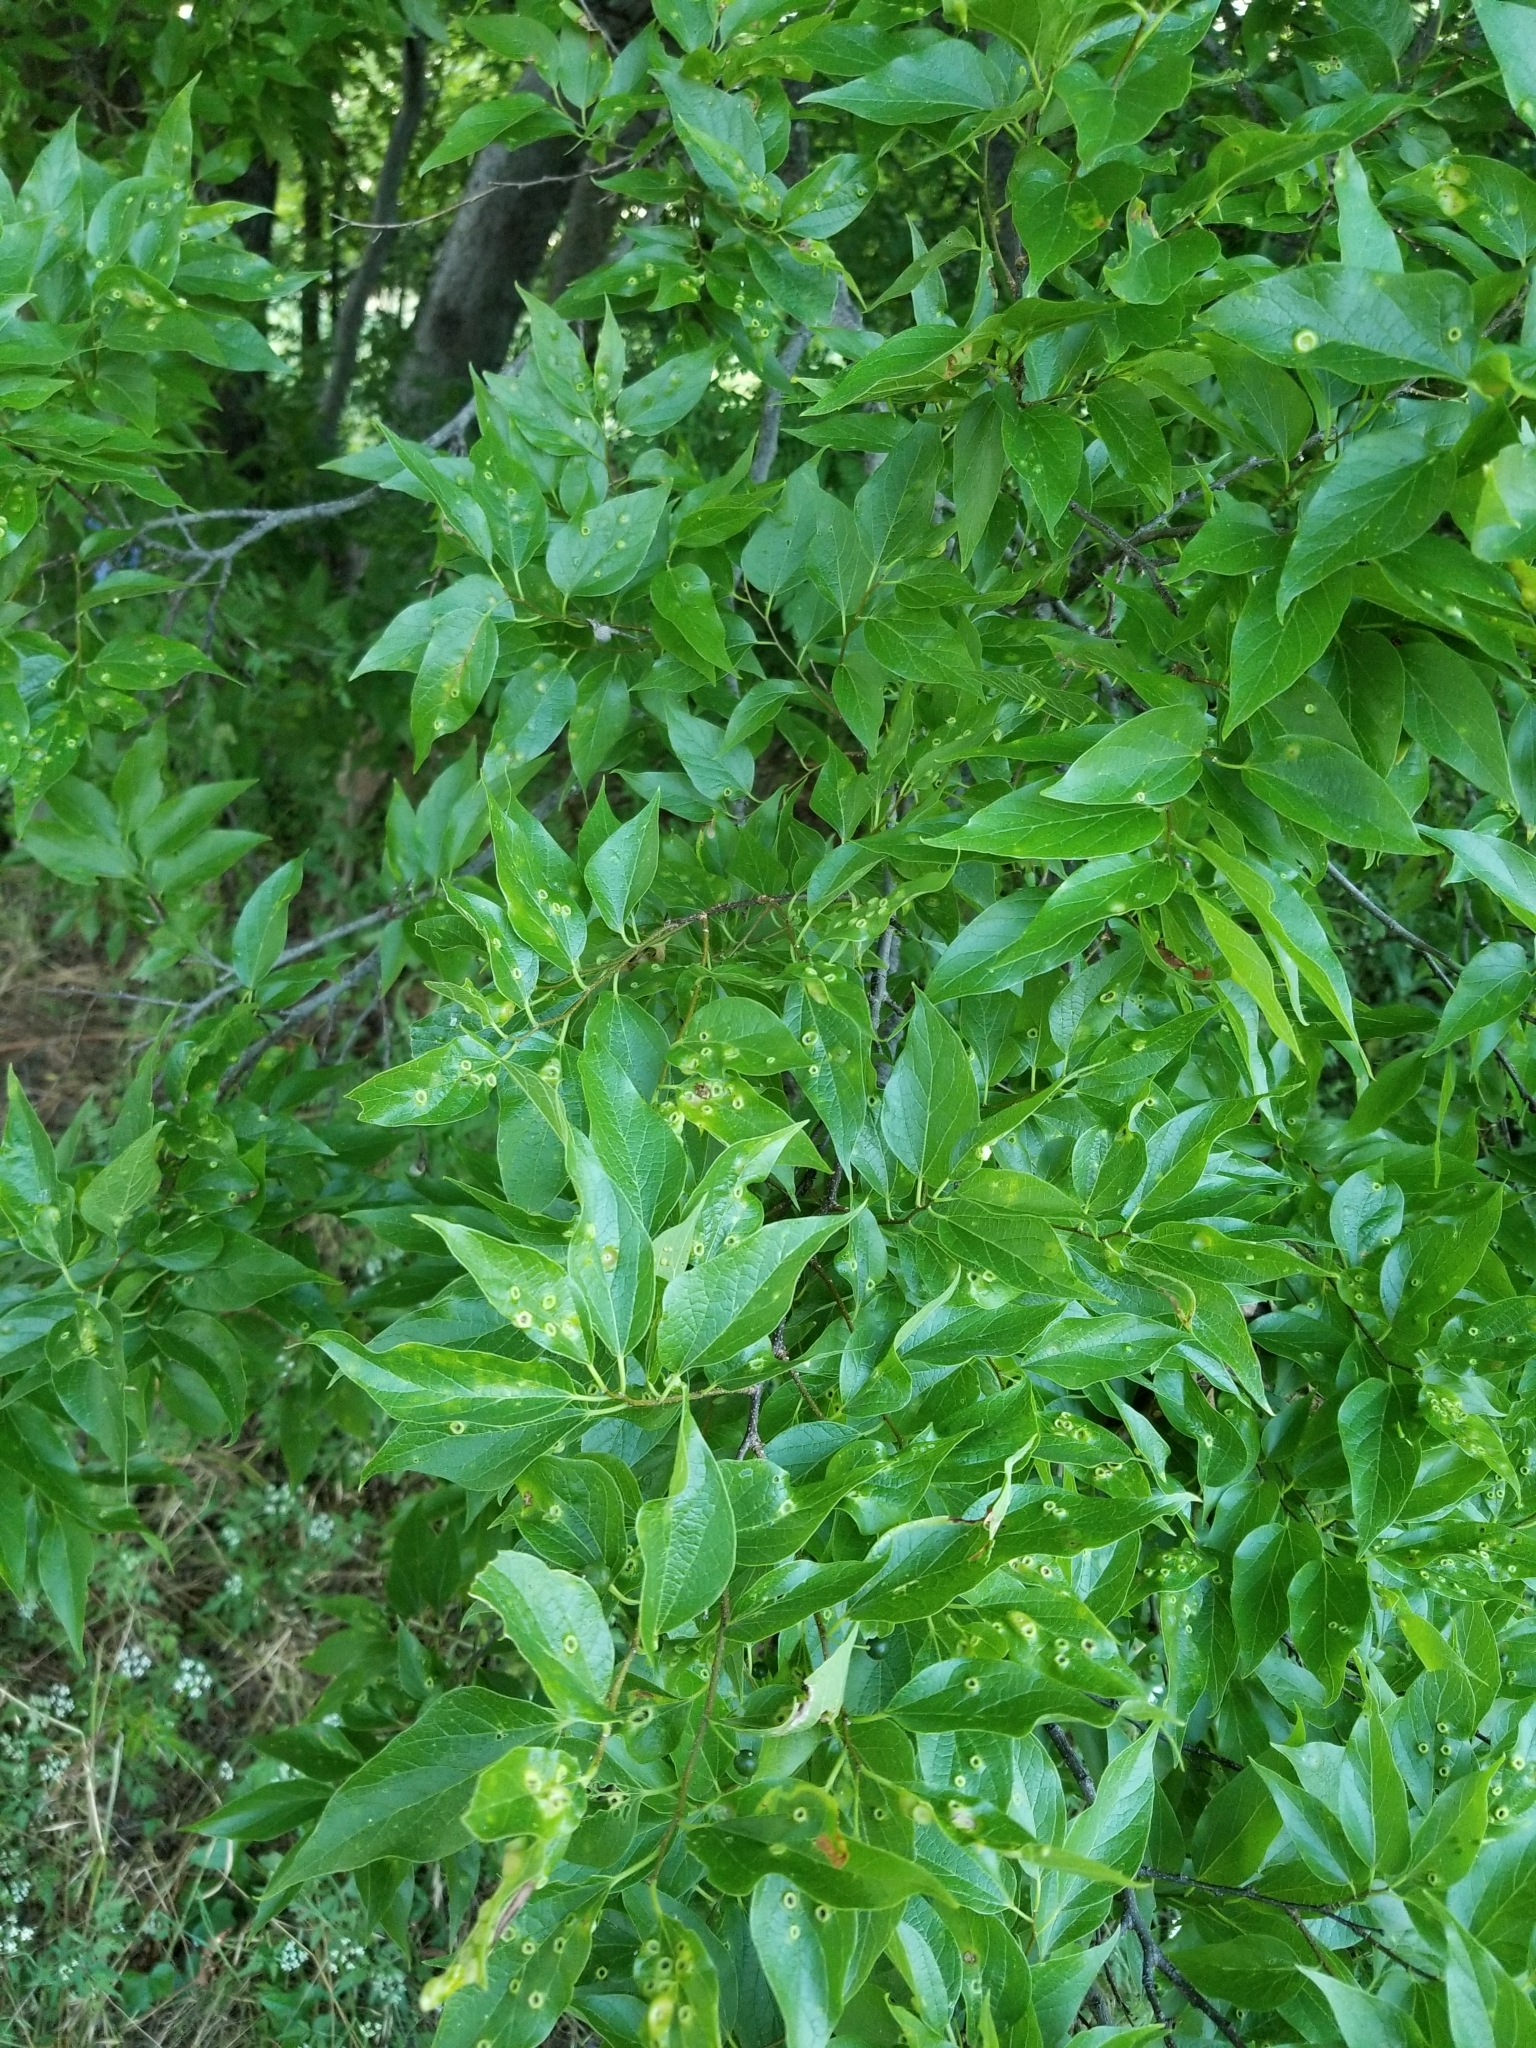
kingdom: Plantae
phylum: Tracheophyta
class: Magnoliopsida
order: Rosales
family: Cannabaceae
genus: Celtis
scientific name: Celtis laevigata
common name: Sugarberry
